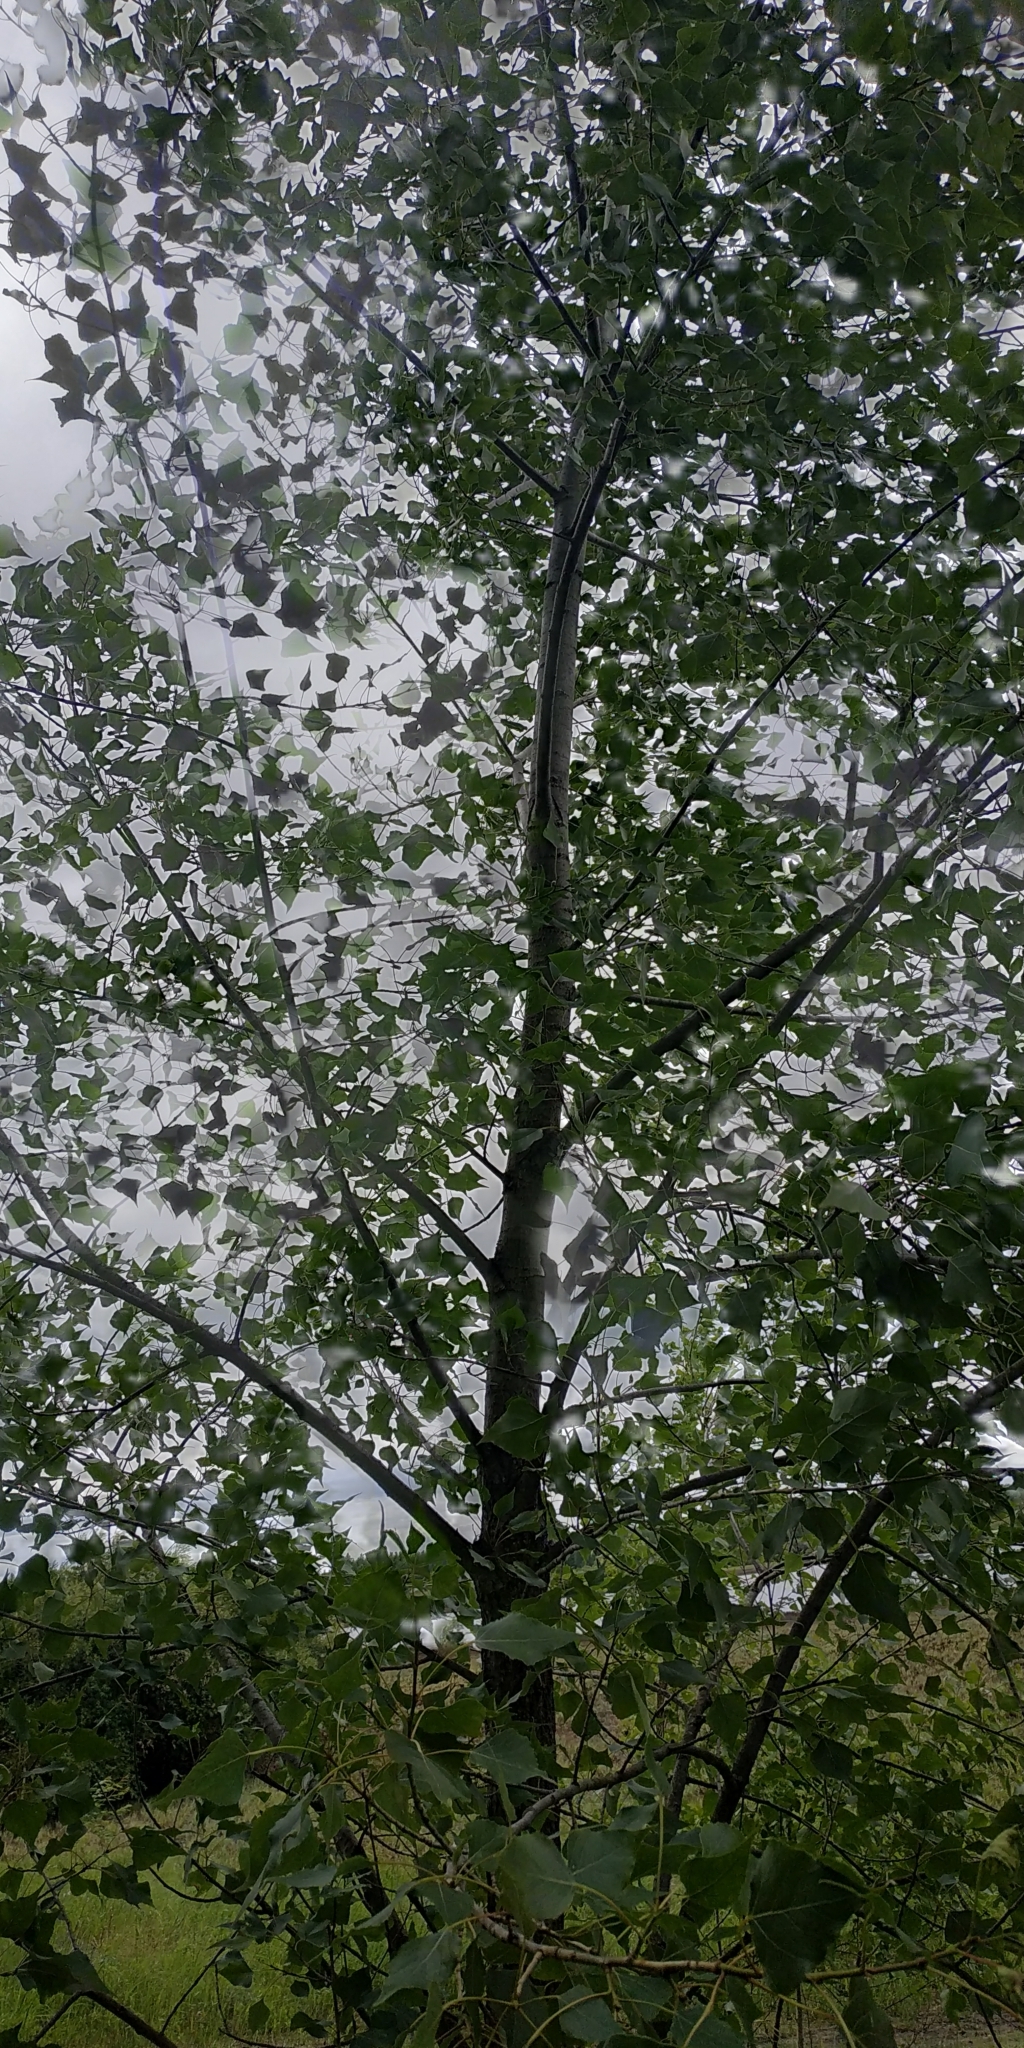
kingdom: Plantae
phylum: Tracheophyta
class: Magnoliopsida
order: Malpighiales
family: Salicaceae
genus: Populus
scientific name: Populus nigra
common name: Black poplar
